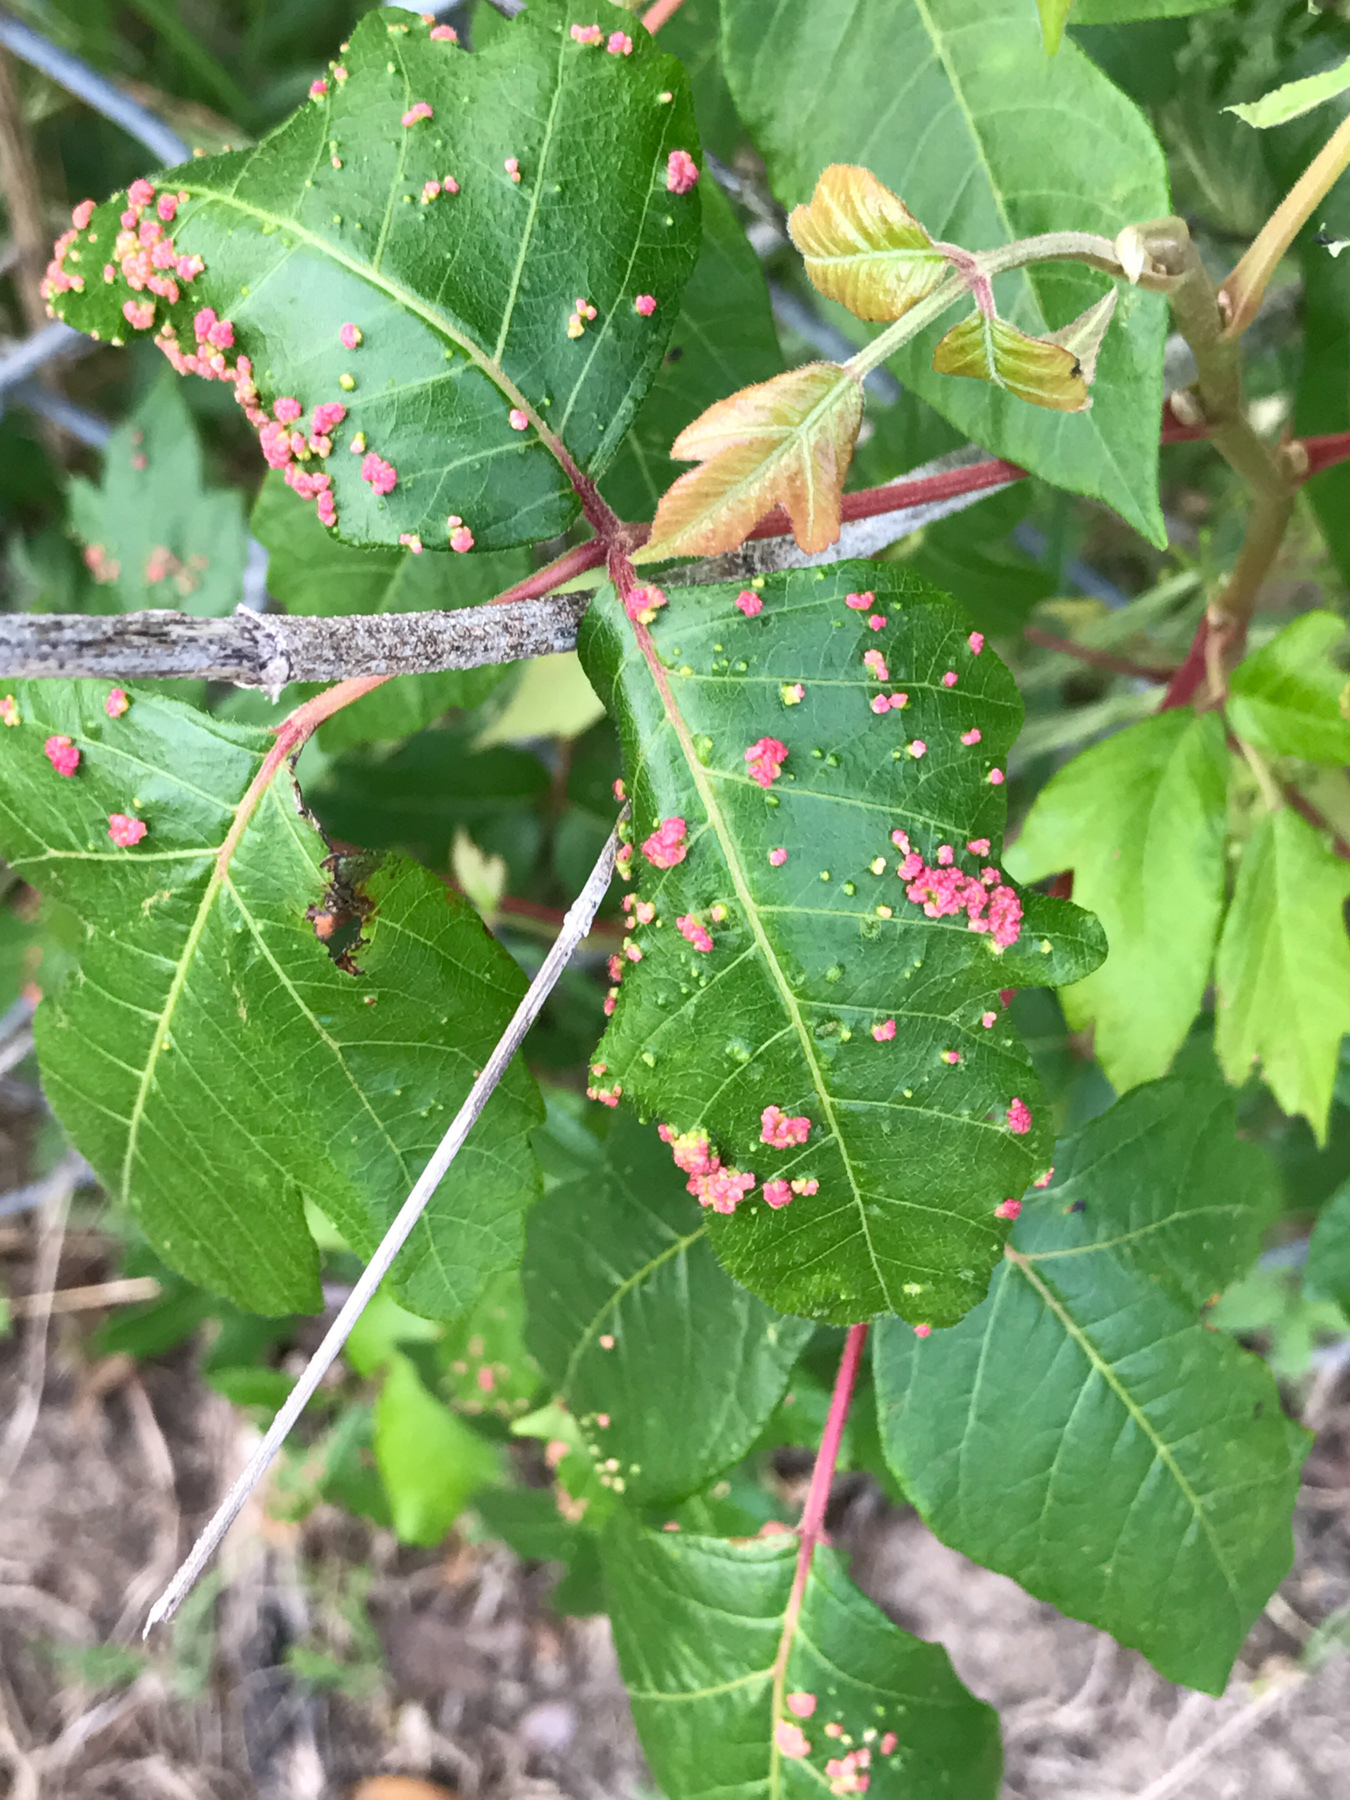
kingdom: Animalia
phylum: Arthropoda
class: Arachnida
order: Trombidiformes
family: Eriophyidae
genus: Aculops
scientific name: Aculops
